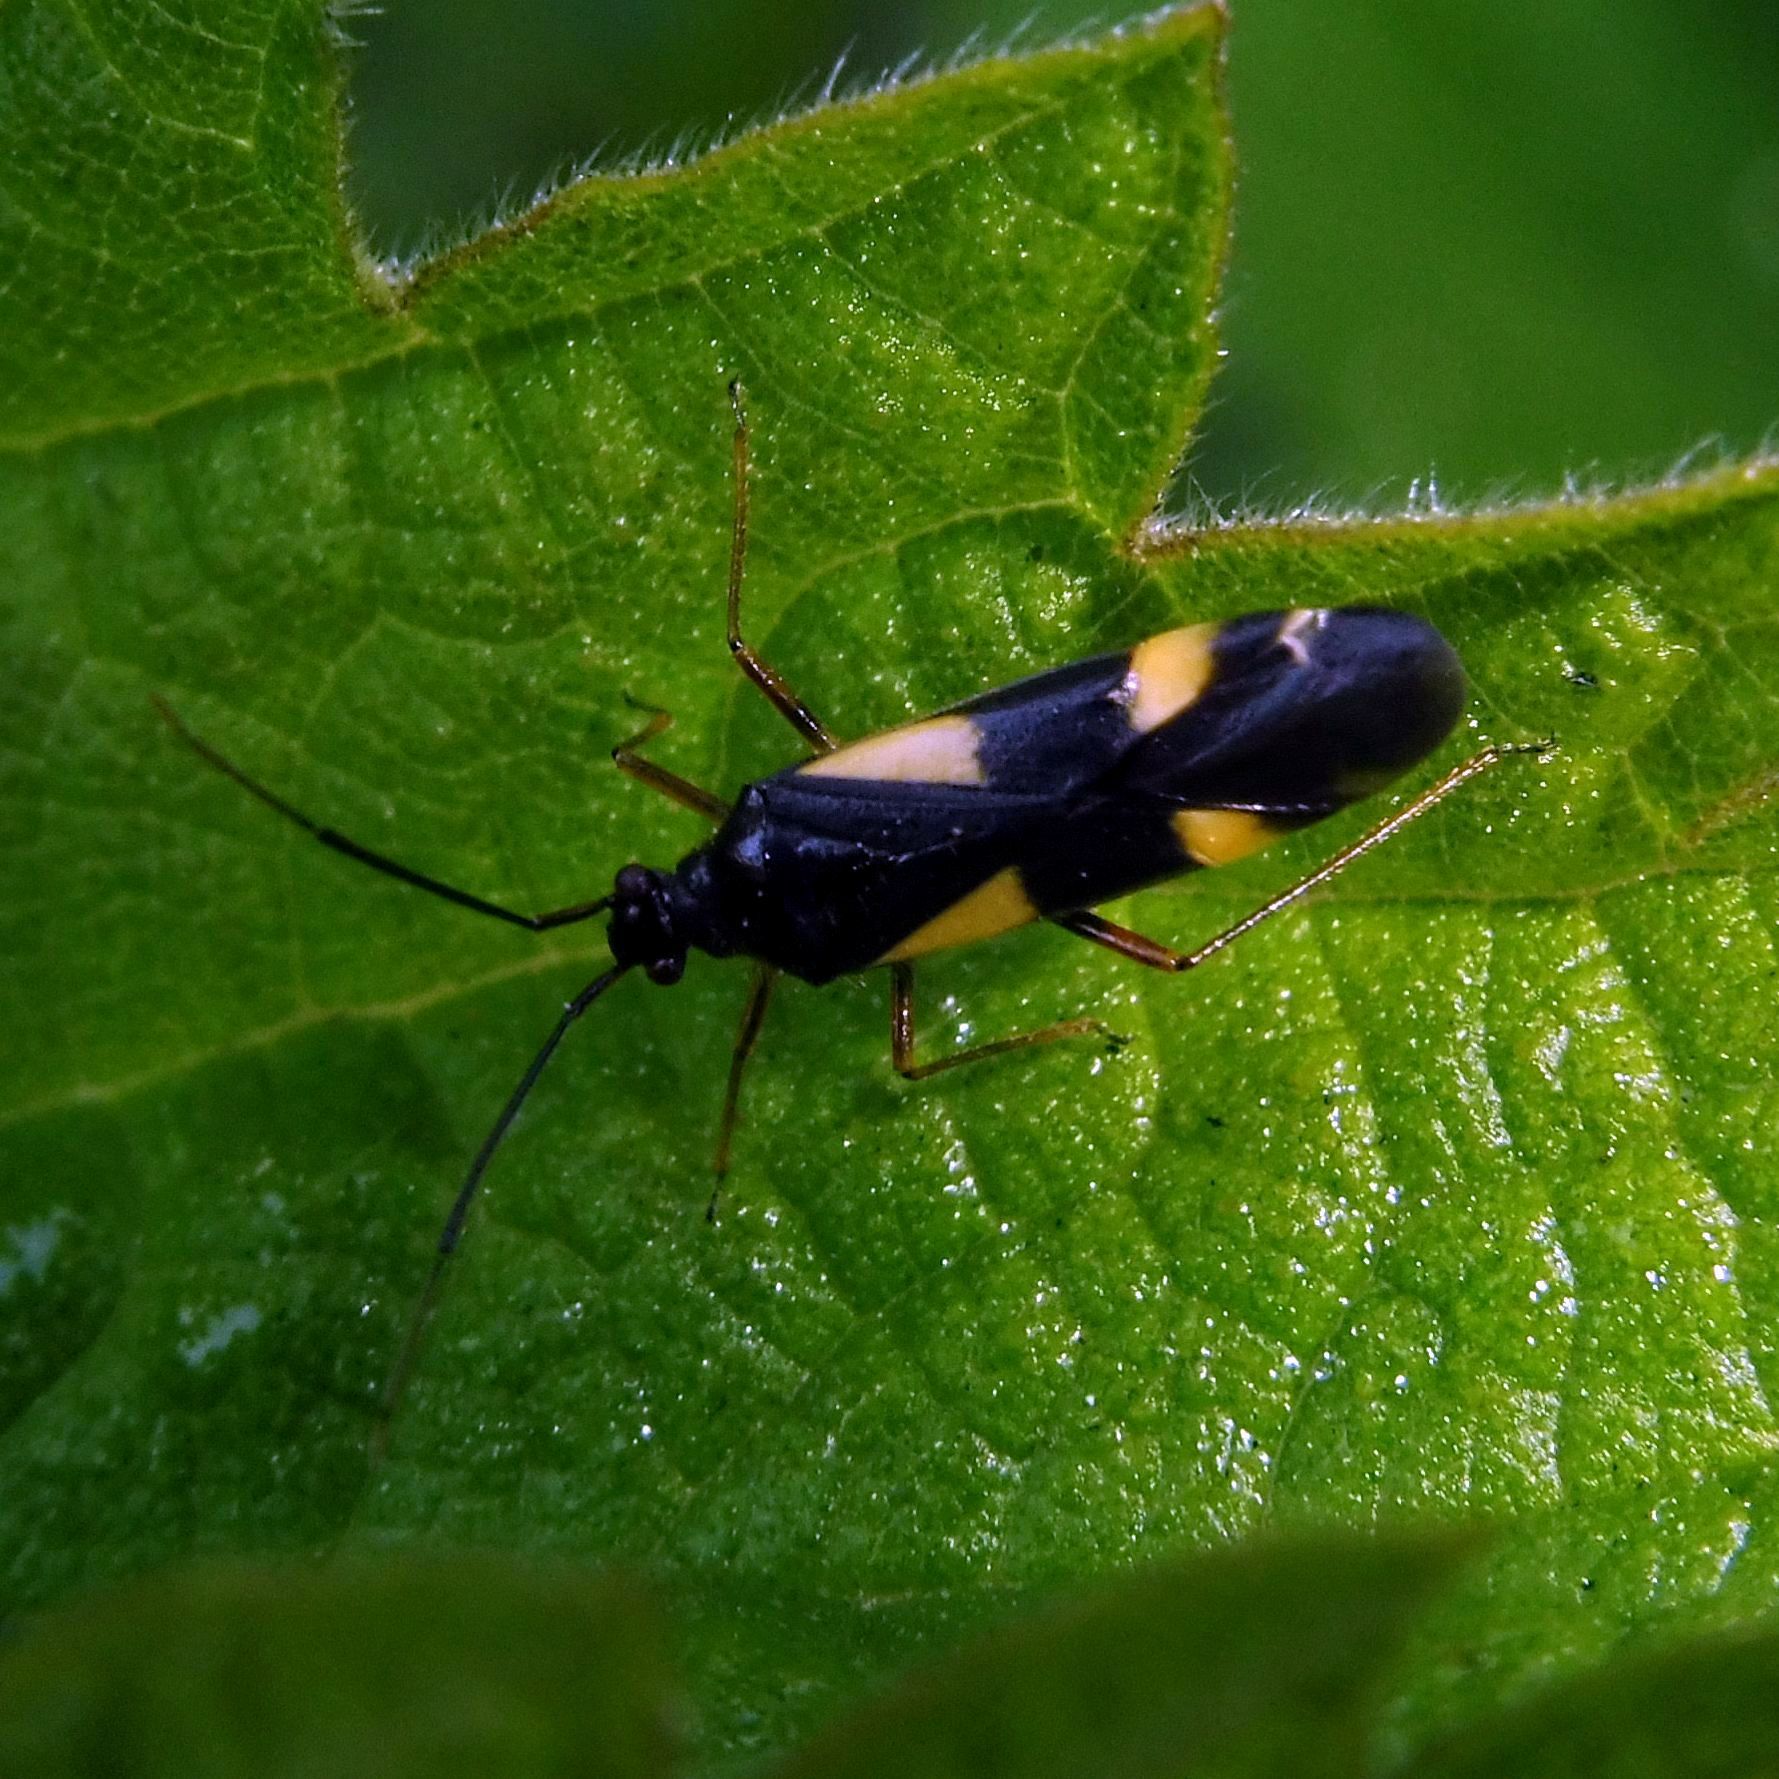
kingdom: Animalia
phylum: Arthropoda
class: Insecta
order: Hemiptera
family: Miridae
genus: Dryophilocoris
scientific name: Dryophilocoris flavoquadrimaculatus
